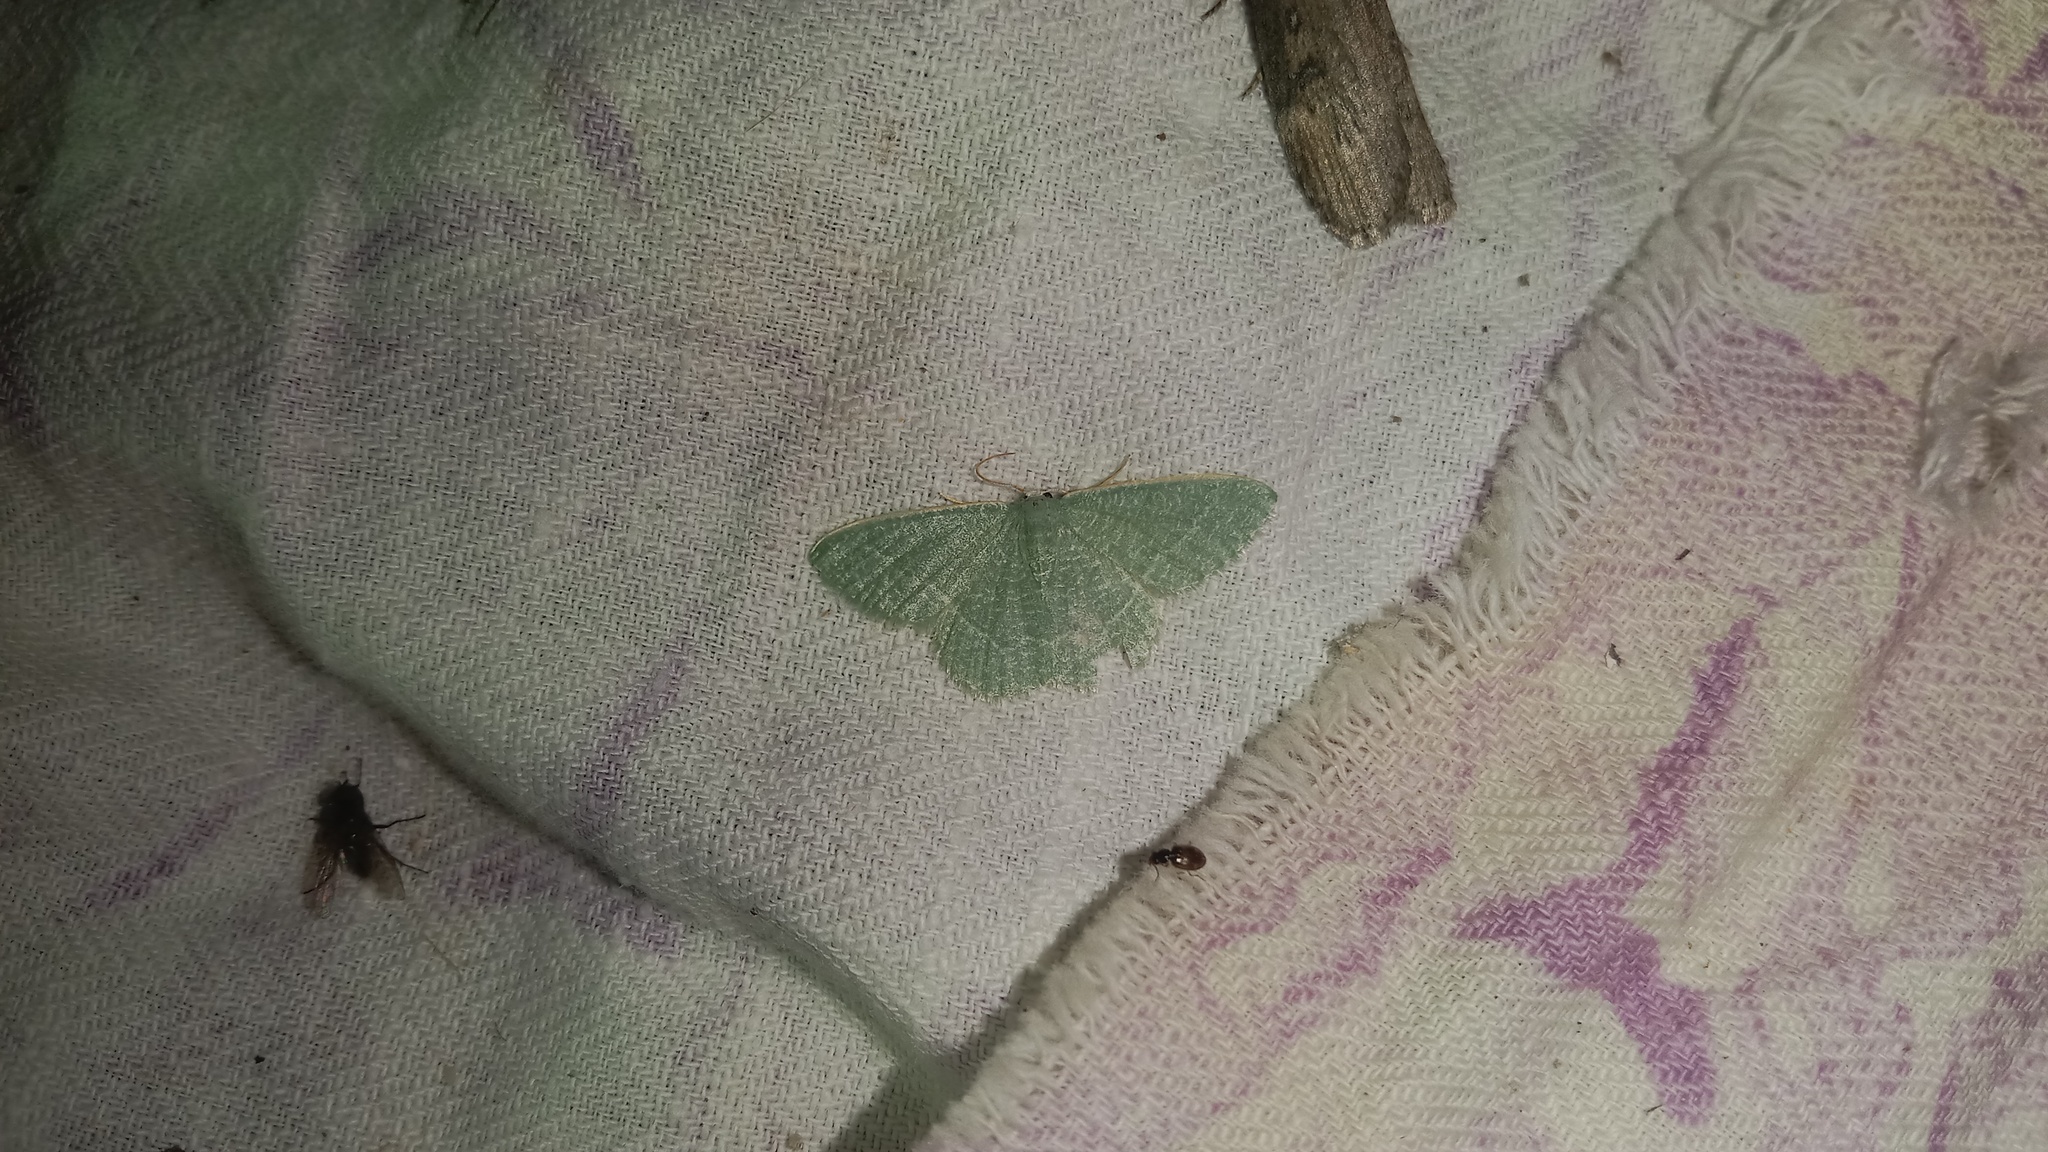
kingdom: Animalia
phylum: Arthropoda
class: Insecta
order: Lepidoptera
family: Geometridae
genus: Chlorissa
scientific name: Chlorissa etruscaria
